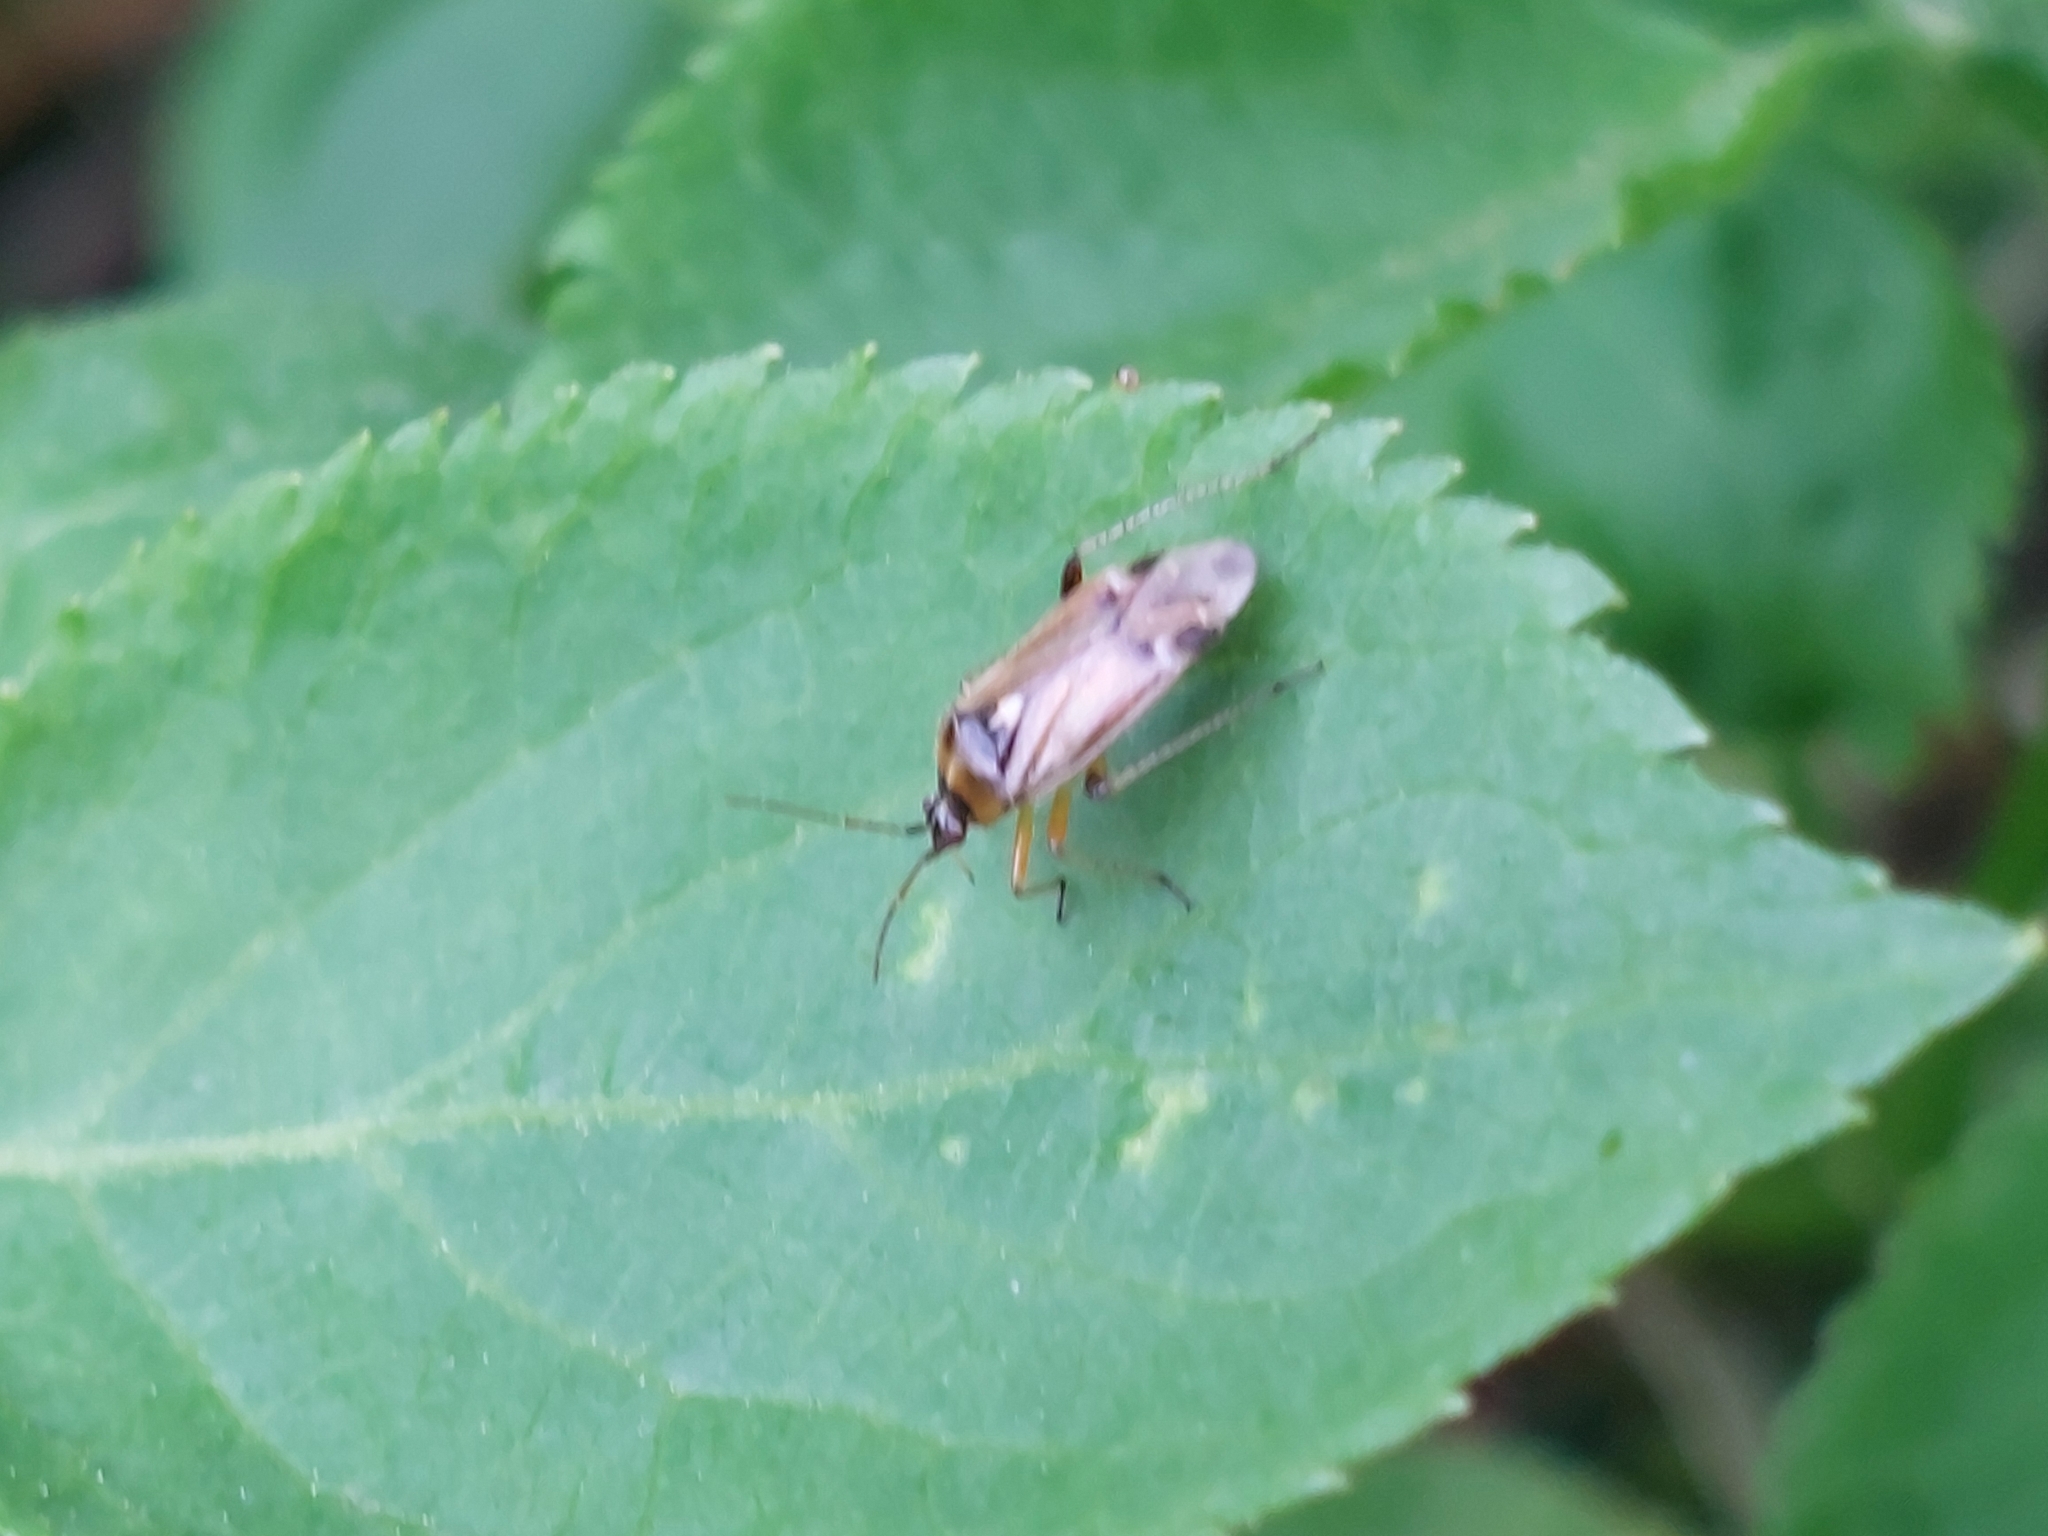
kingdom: Animalia
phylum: Arthropoda
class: Insecta
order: Hemiptera
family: Miridae
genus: Harpocera
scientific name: Harpocera thoracica
